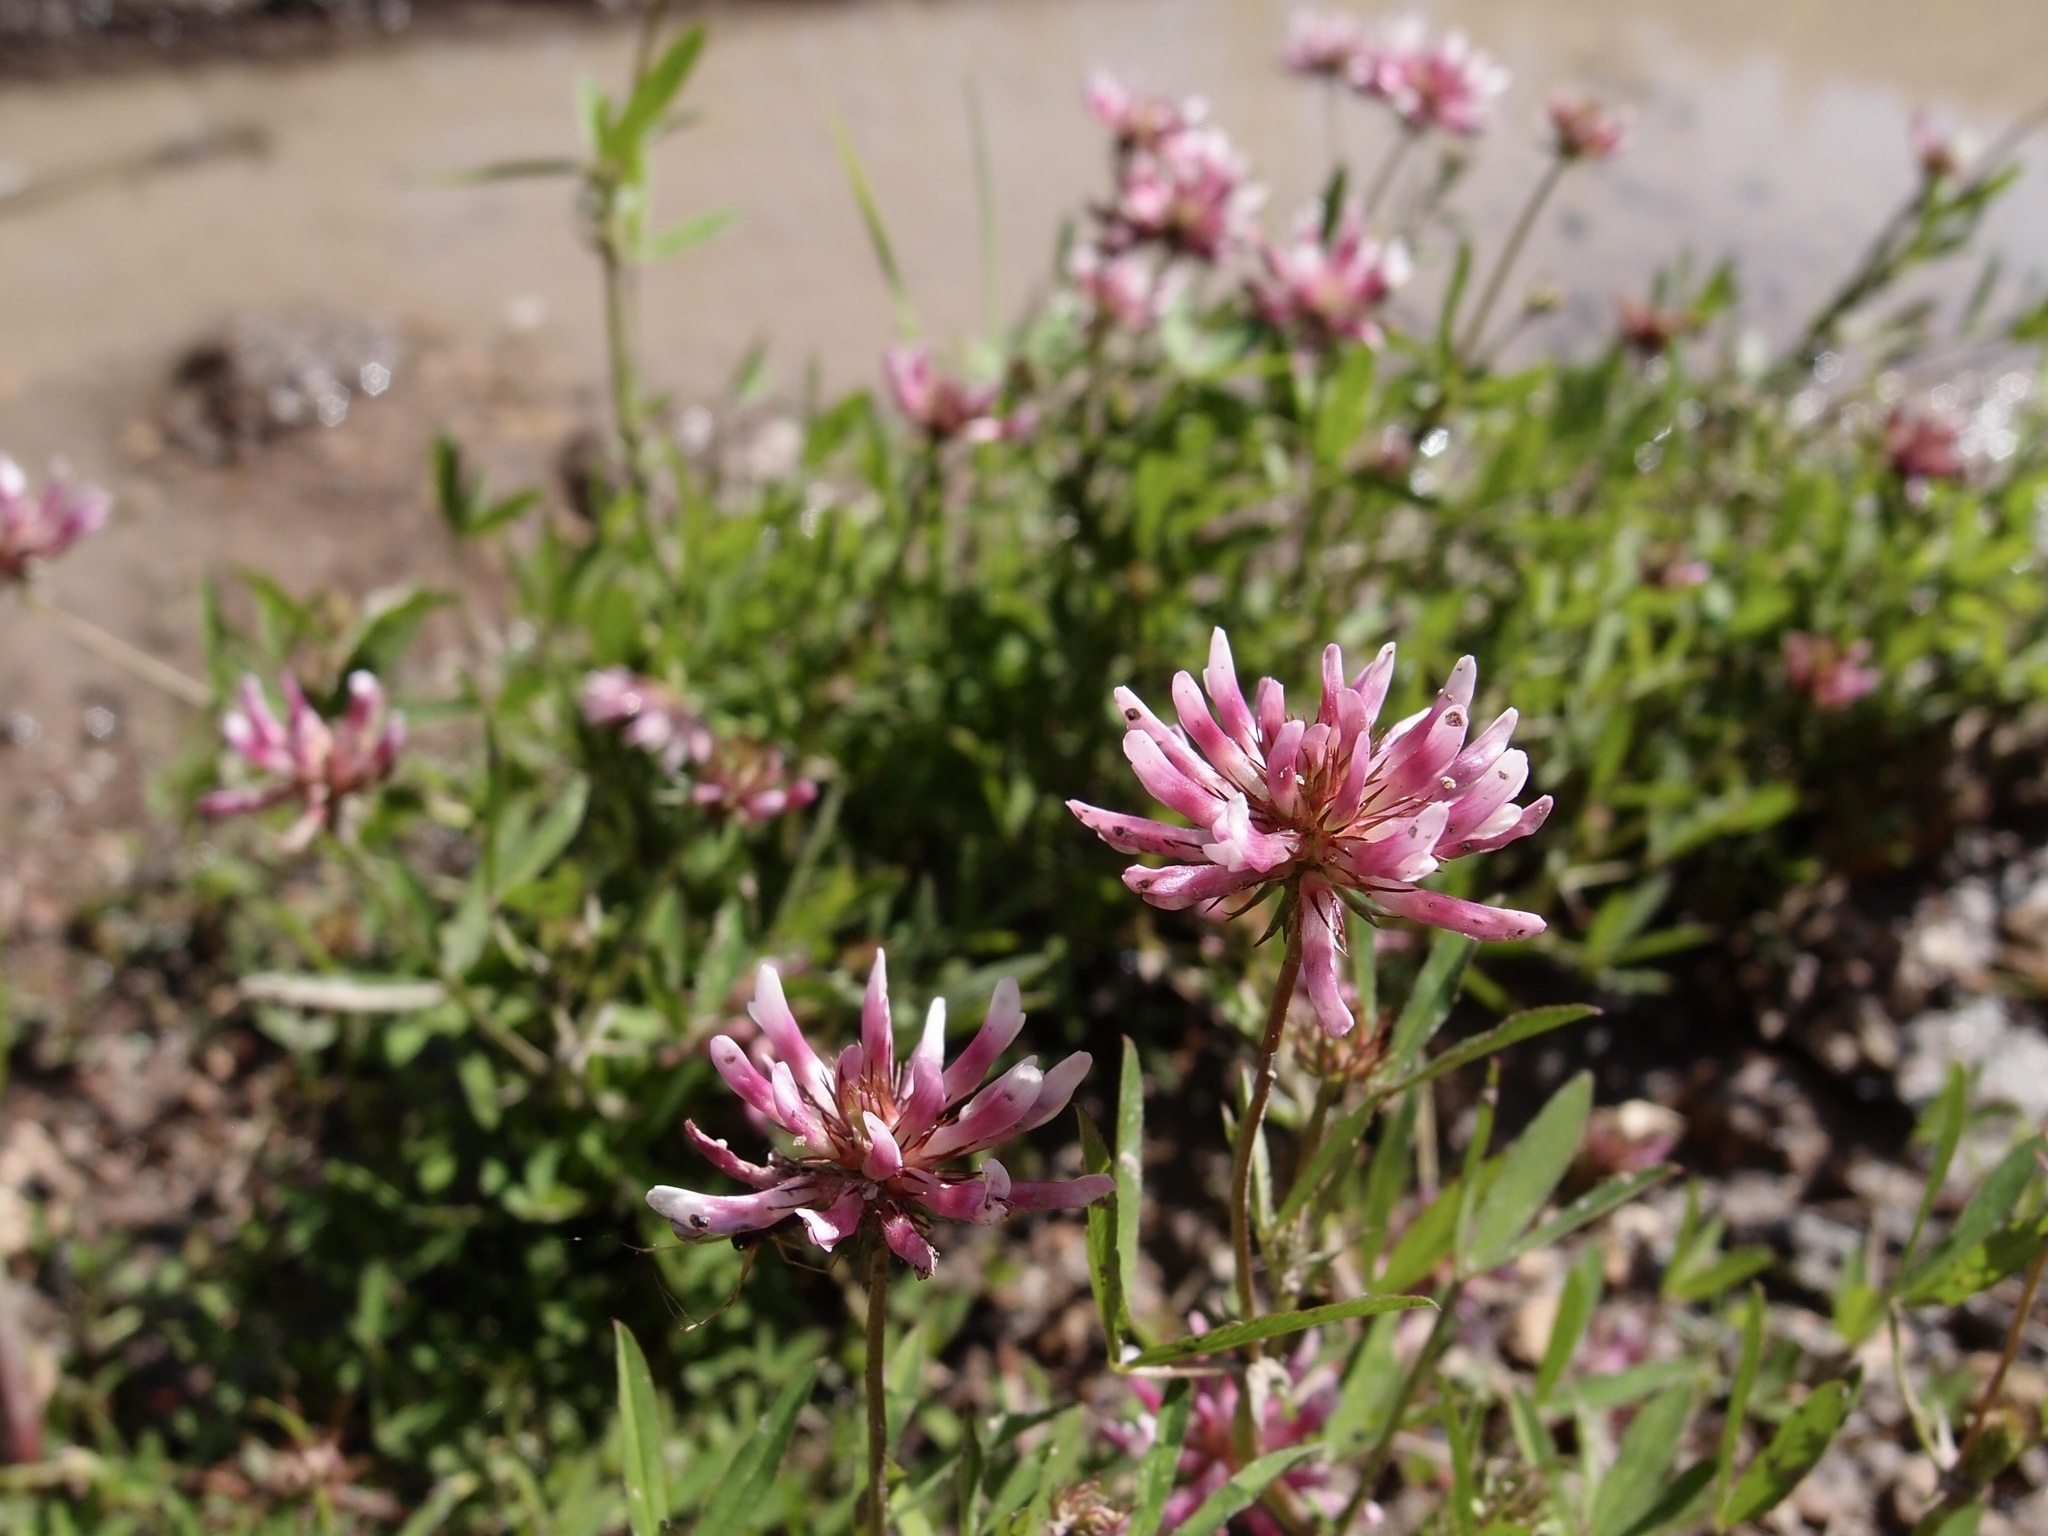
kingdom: Plantae
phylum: Tracheophyta
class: Magnoliopsida
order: Fabales
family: Fabaceae
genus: Trifolium
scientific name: Trifolium wormskioldii
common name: Springbank clover
